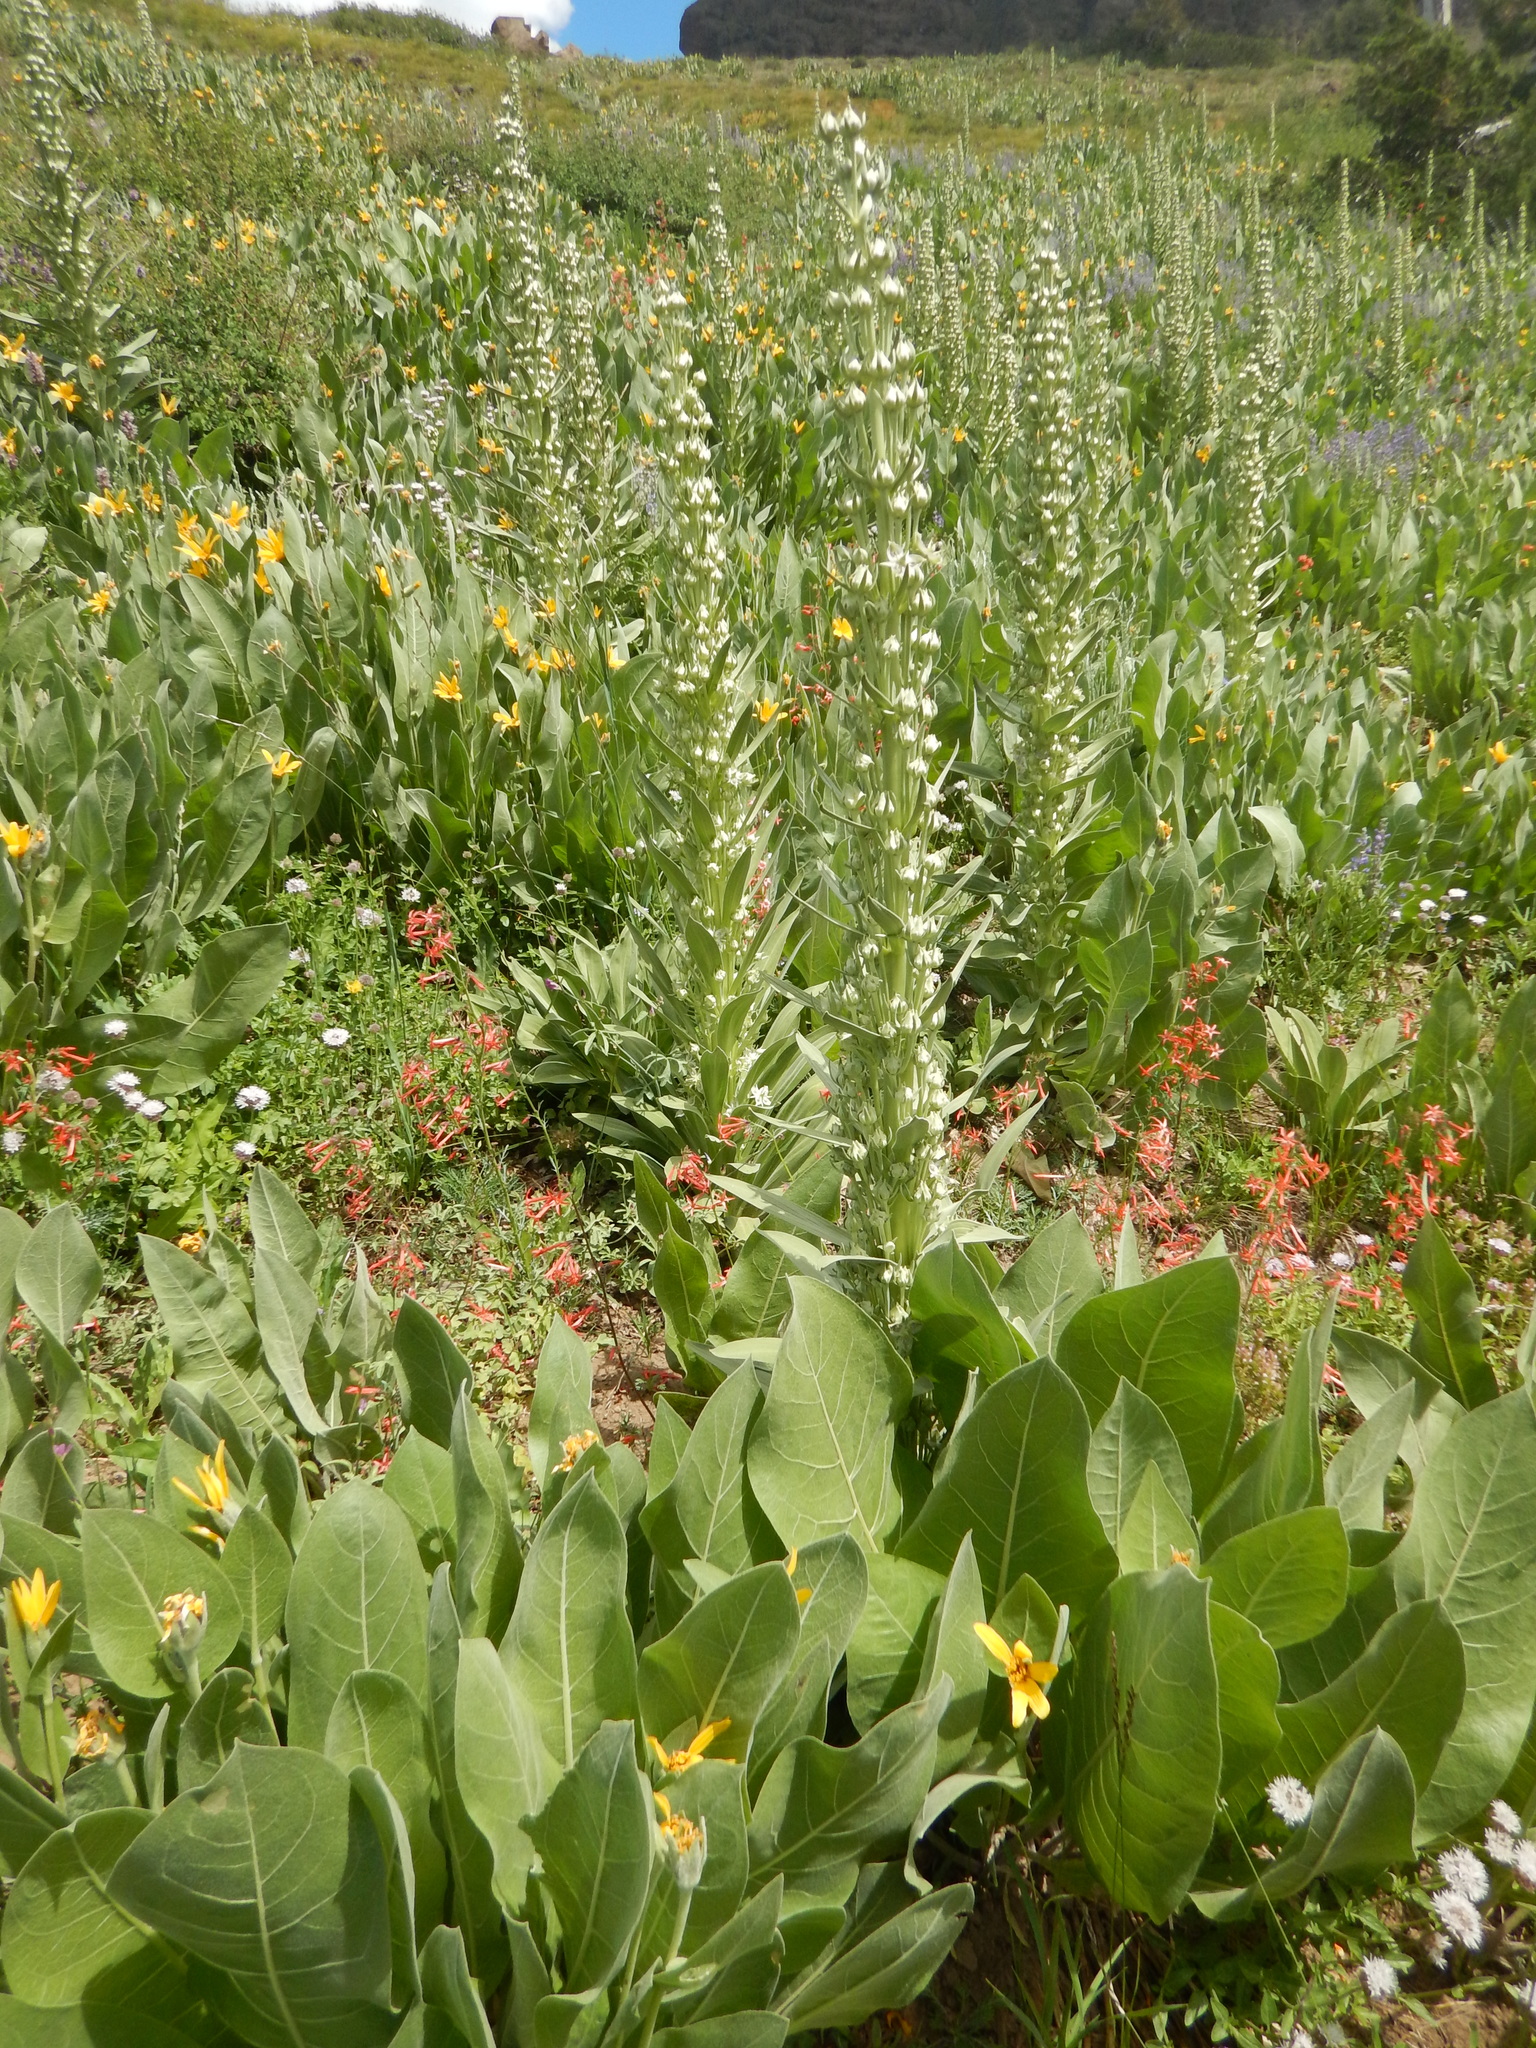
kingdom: Plantae
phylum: Tracheophyta
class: Magnoliopsida
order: Gentianales
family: Gentianaceae
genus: Frasera
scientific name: Frasera speciosa
